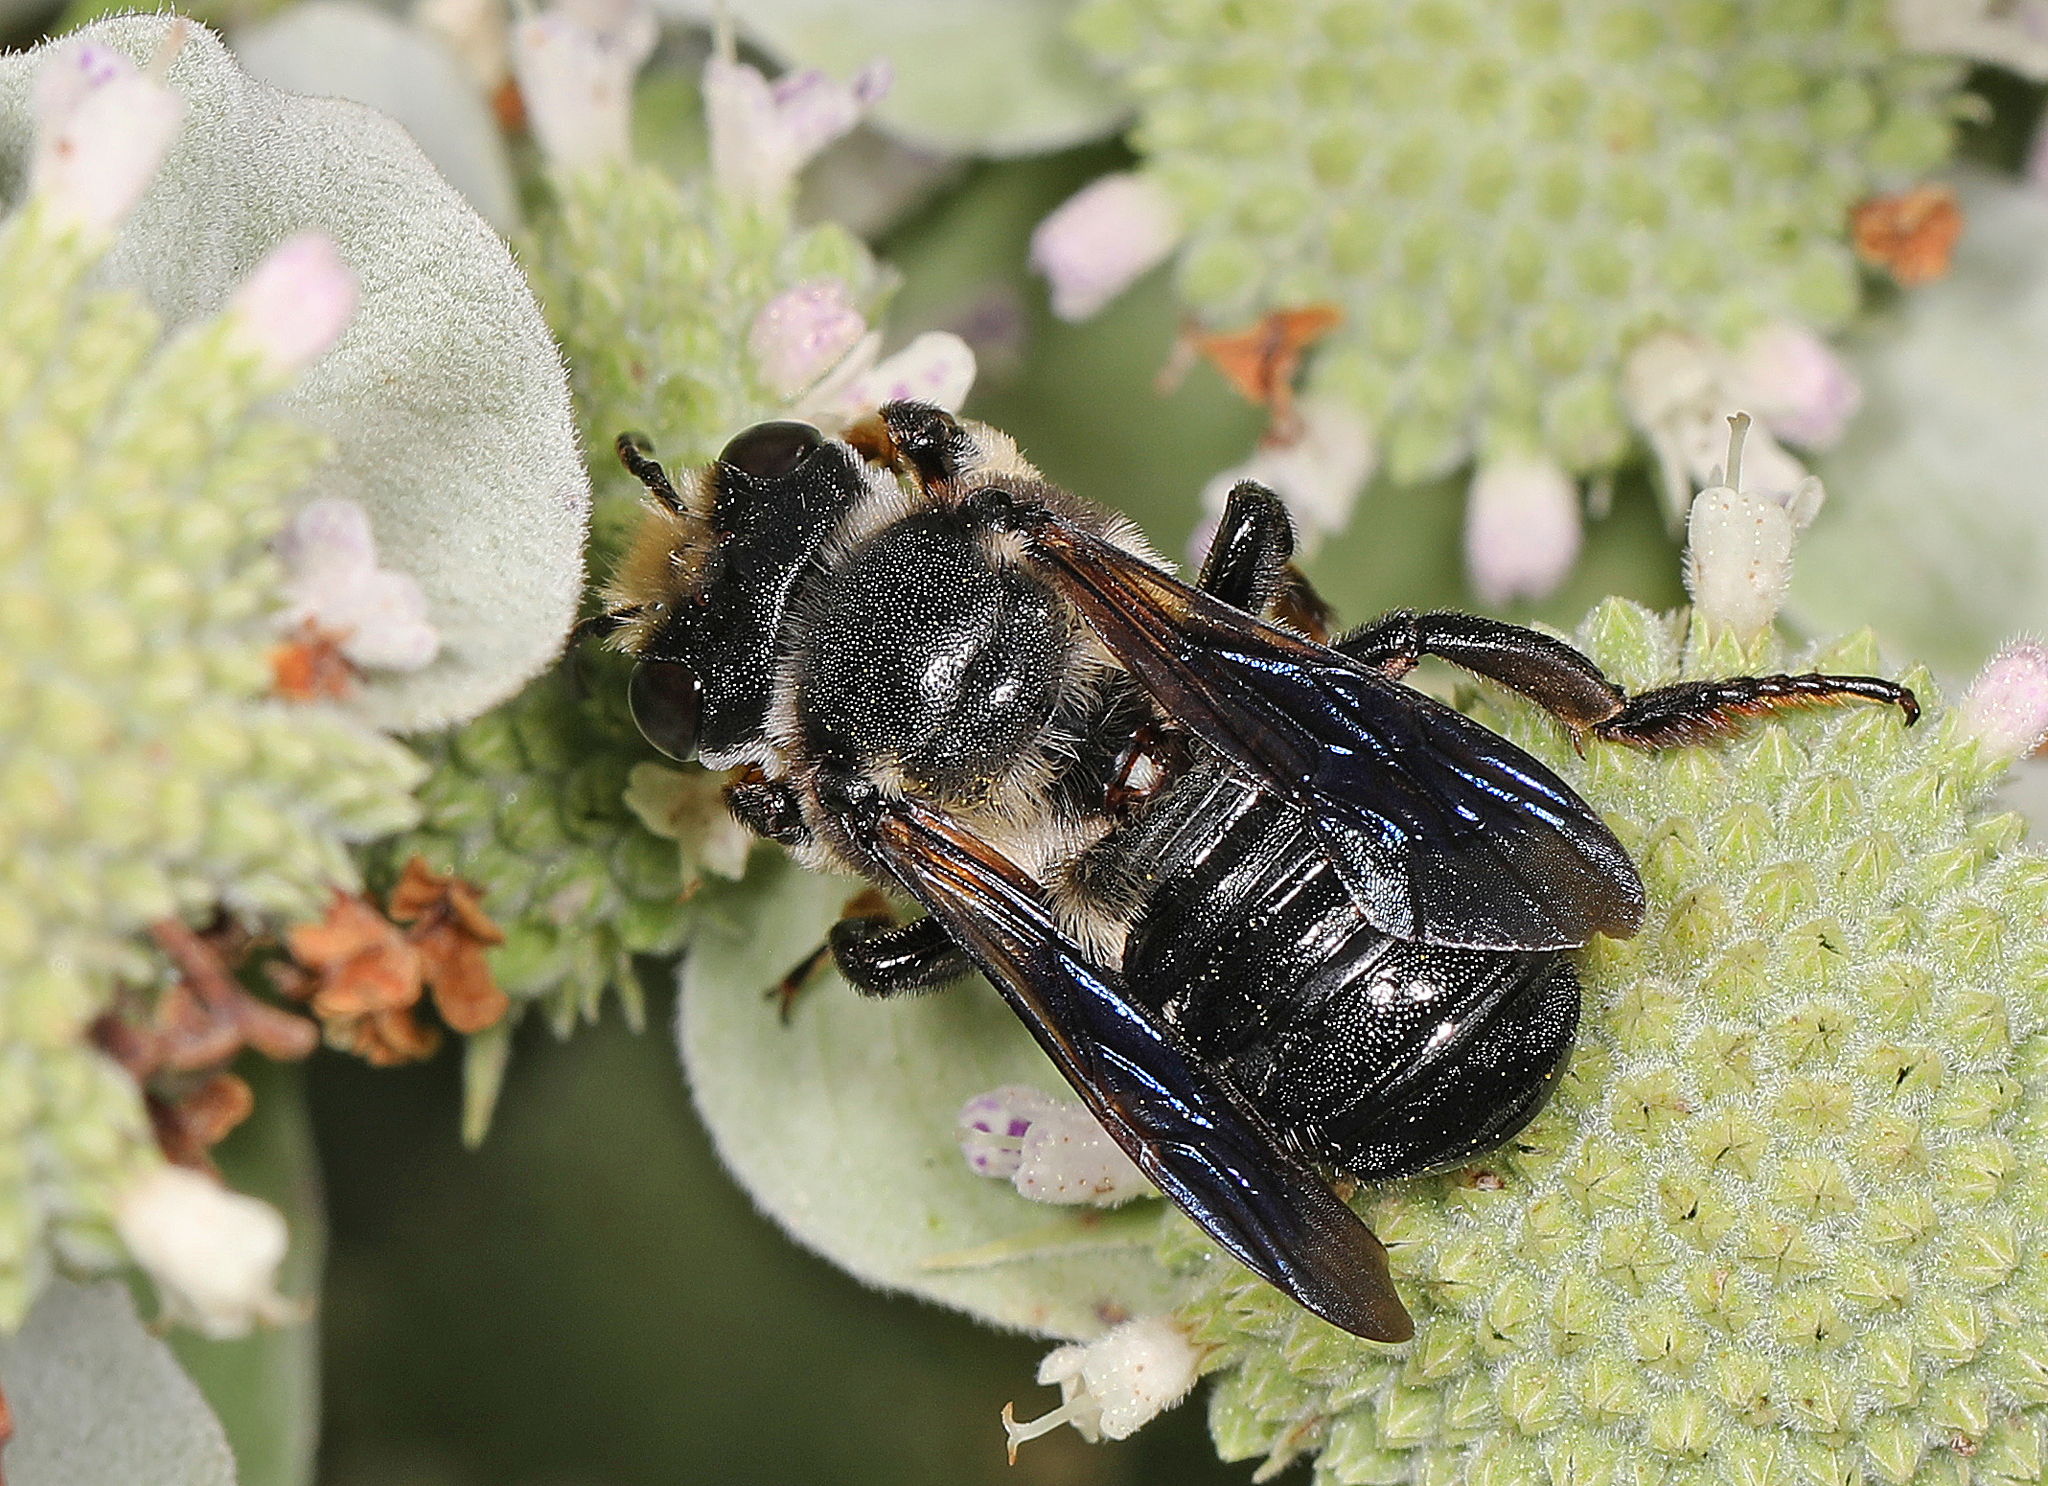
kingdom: Animalia
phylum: Arthropoda
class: Insecta
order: Hymenoptera
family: Megachilidae
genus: Megachile
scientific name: Megachile xylocopoides
